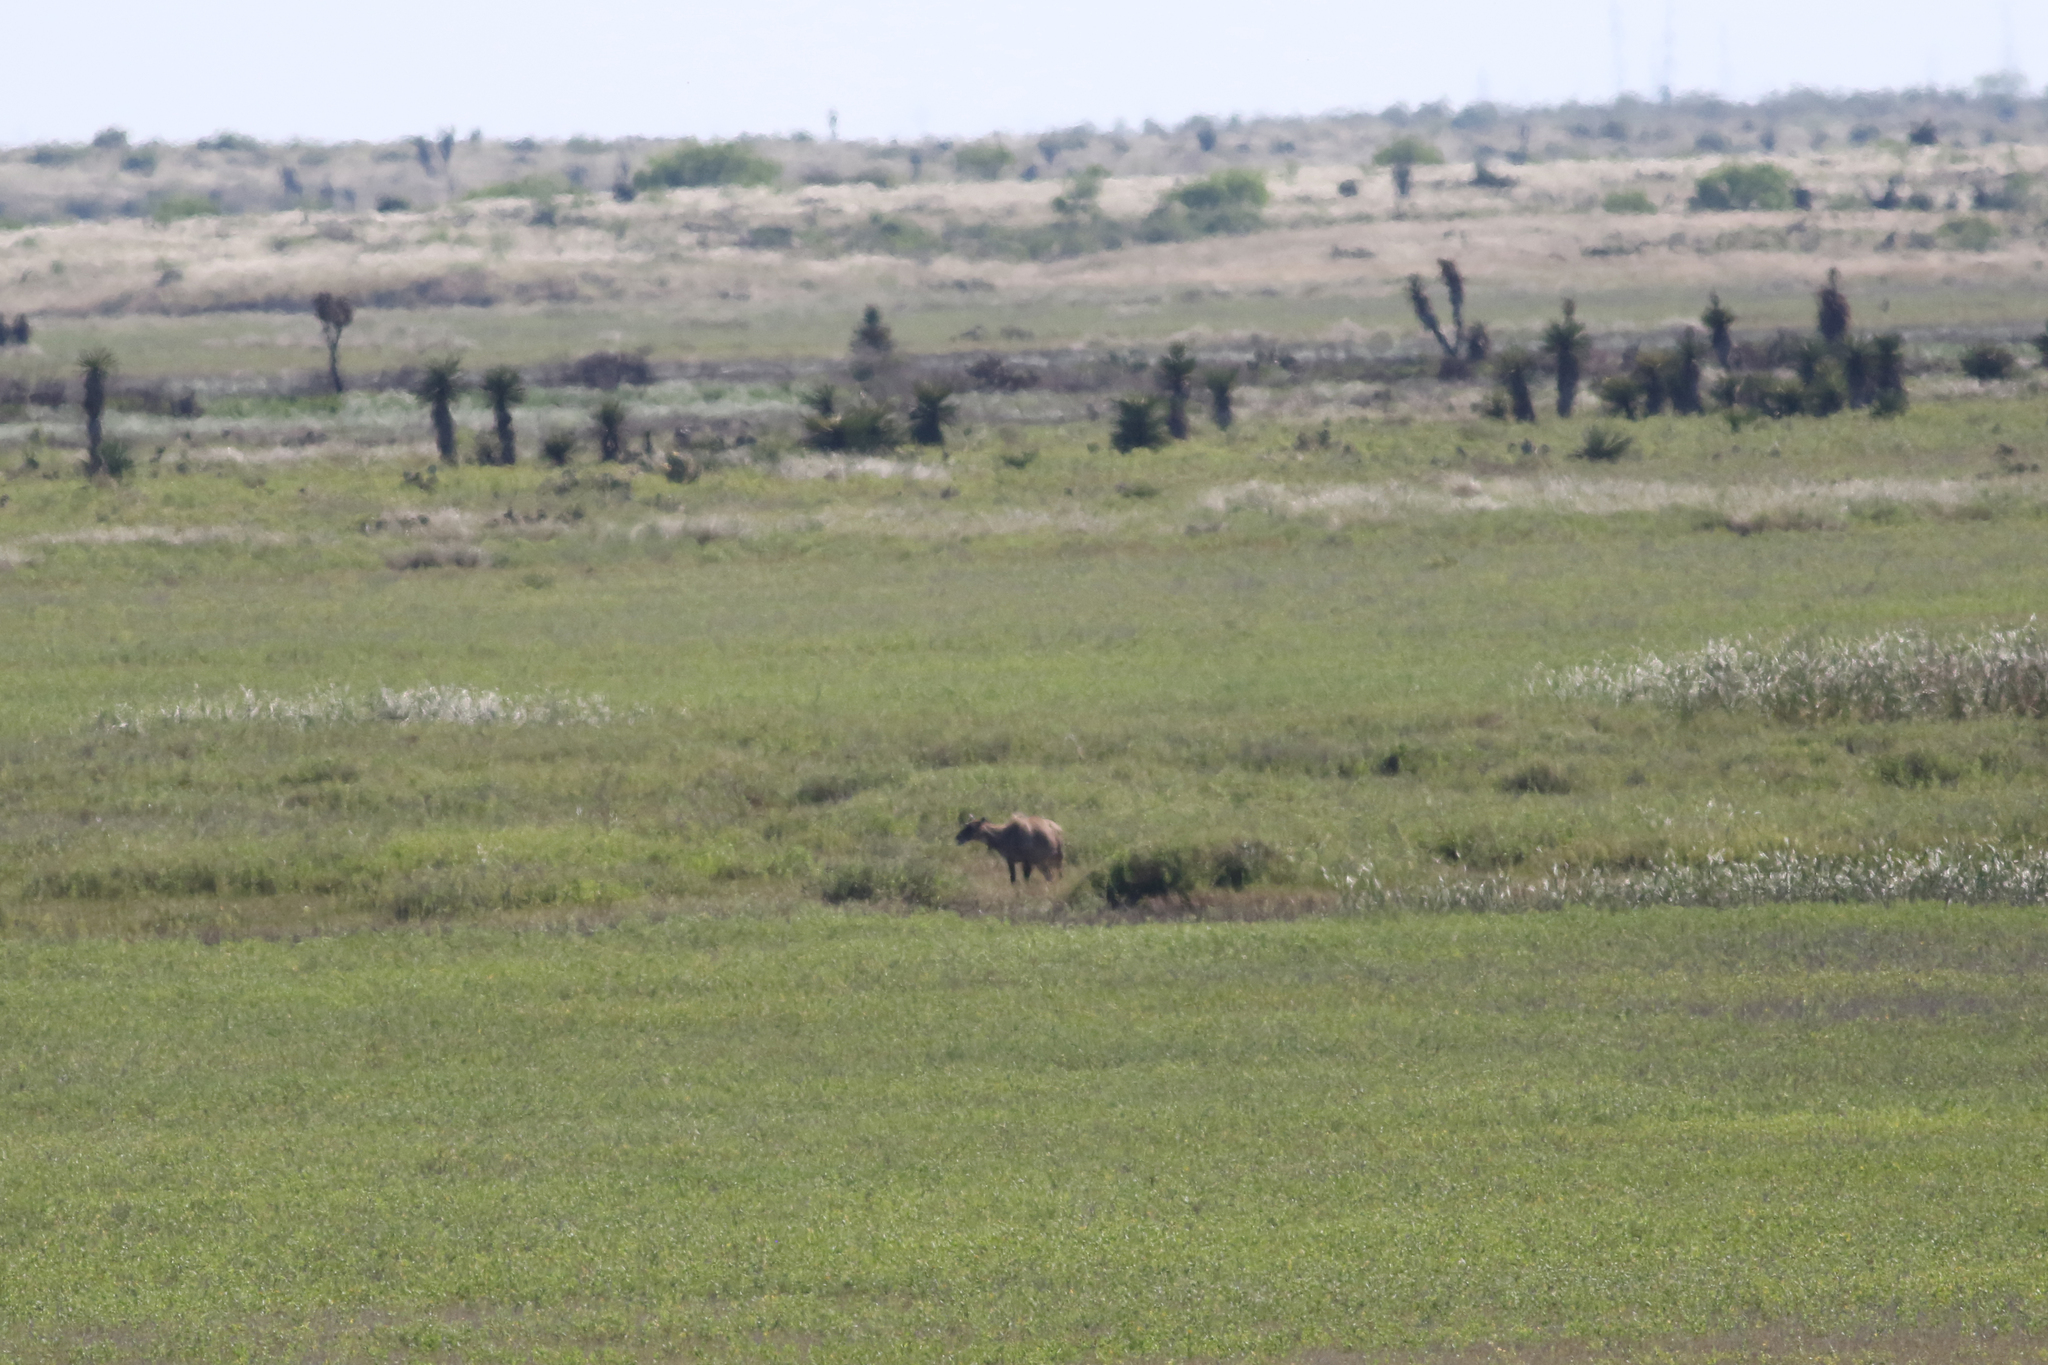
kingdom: Animalia
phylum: Chordata
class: Mammalia
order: Artiodactyla
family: Bovidae
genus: Boselaphus
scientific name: Boselaphus tragocamelus
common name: Nilgai
